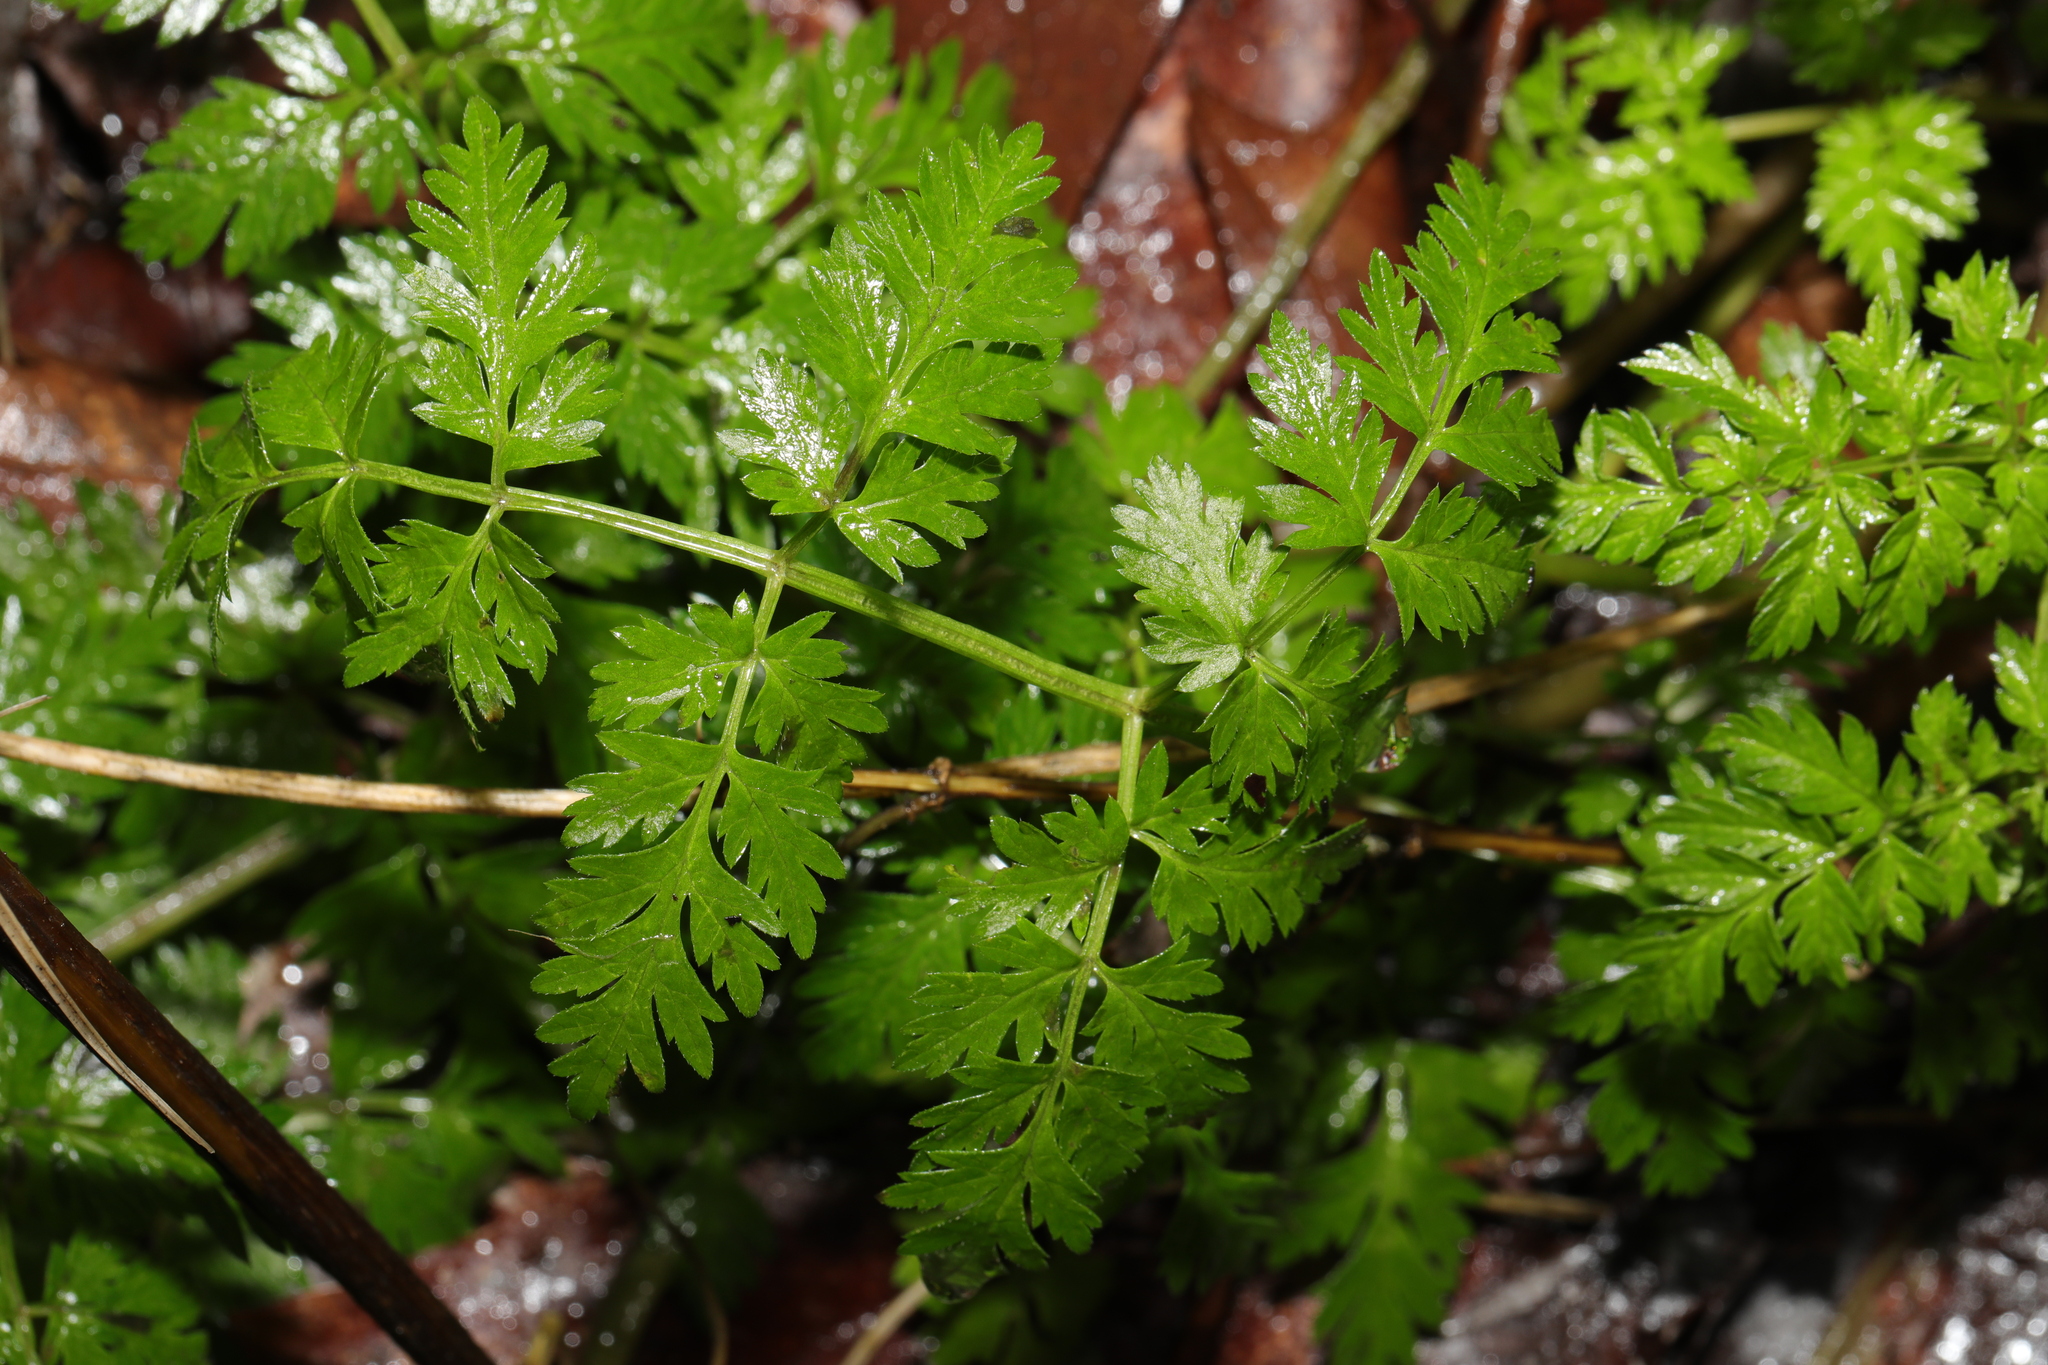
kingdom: Plantae
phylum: Tracheophyta
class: Magnoliopsida
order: Apiales
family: Apiaceae
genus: Anthriscus
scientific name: Anthriscus sylvestris
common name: Cow parsley
